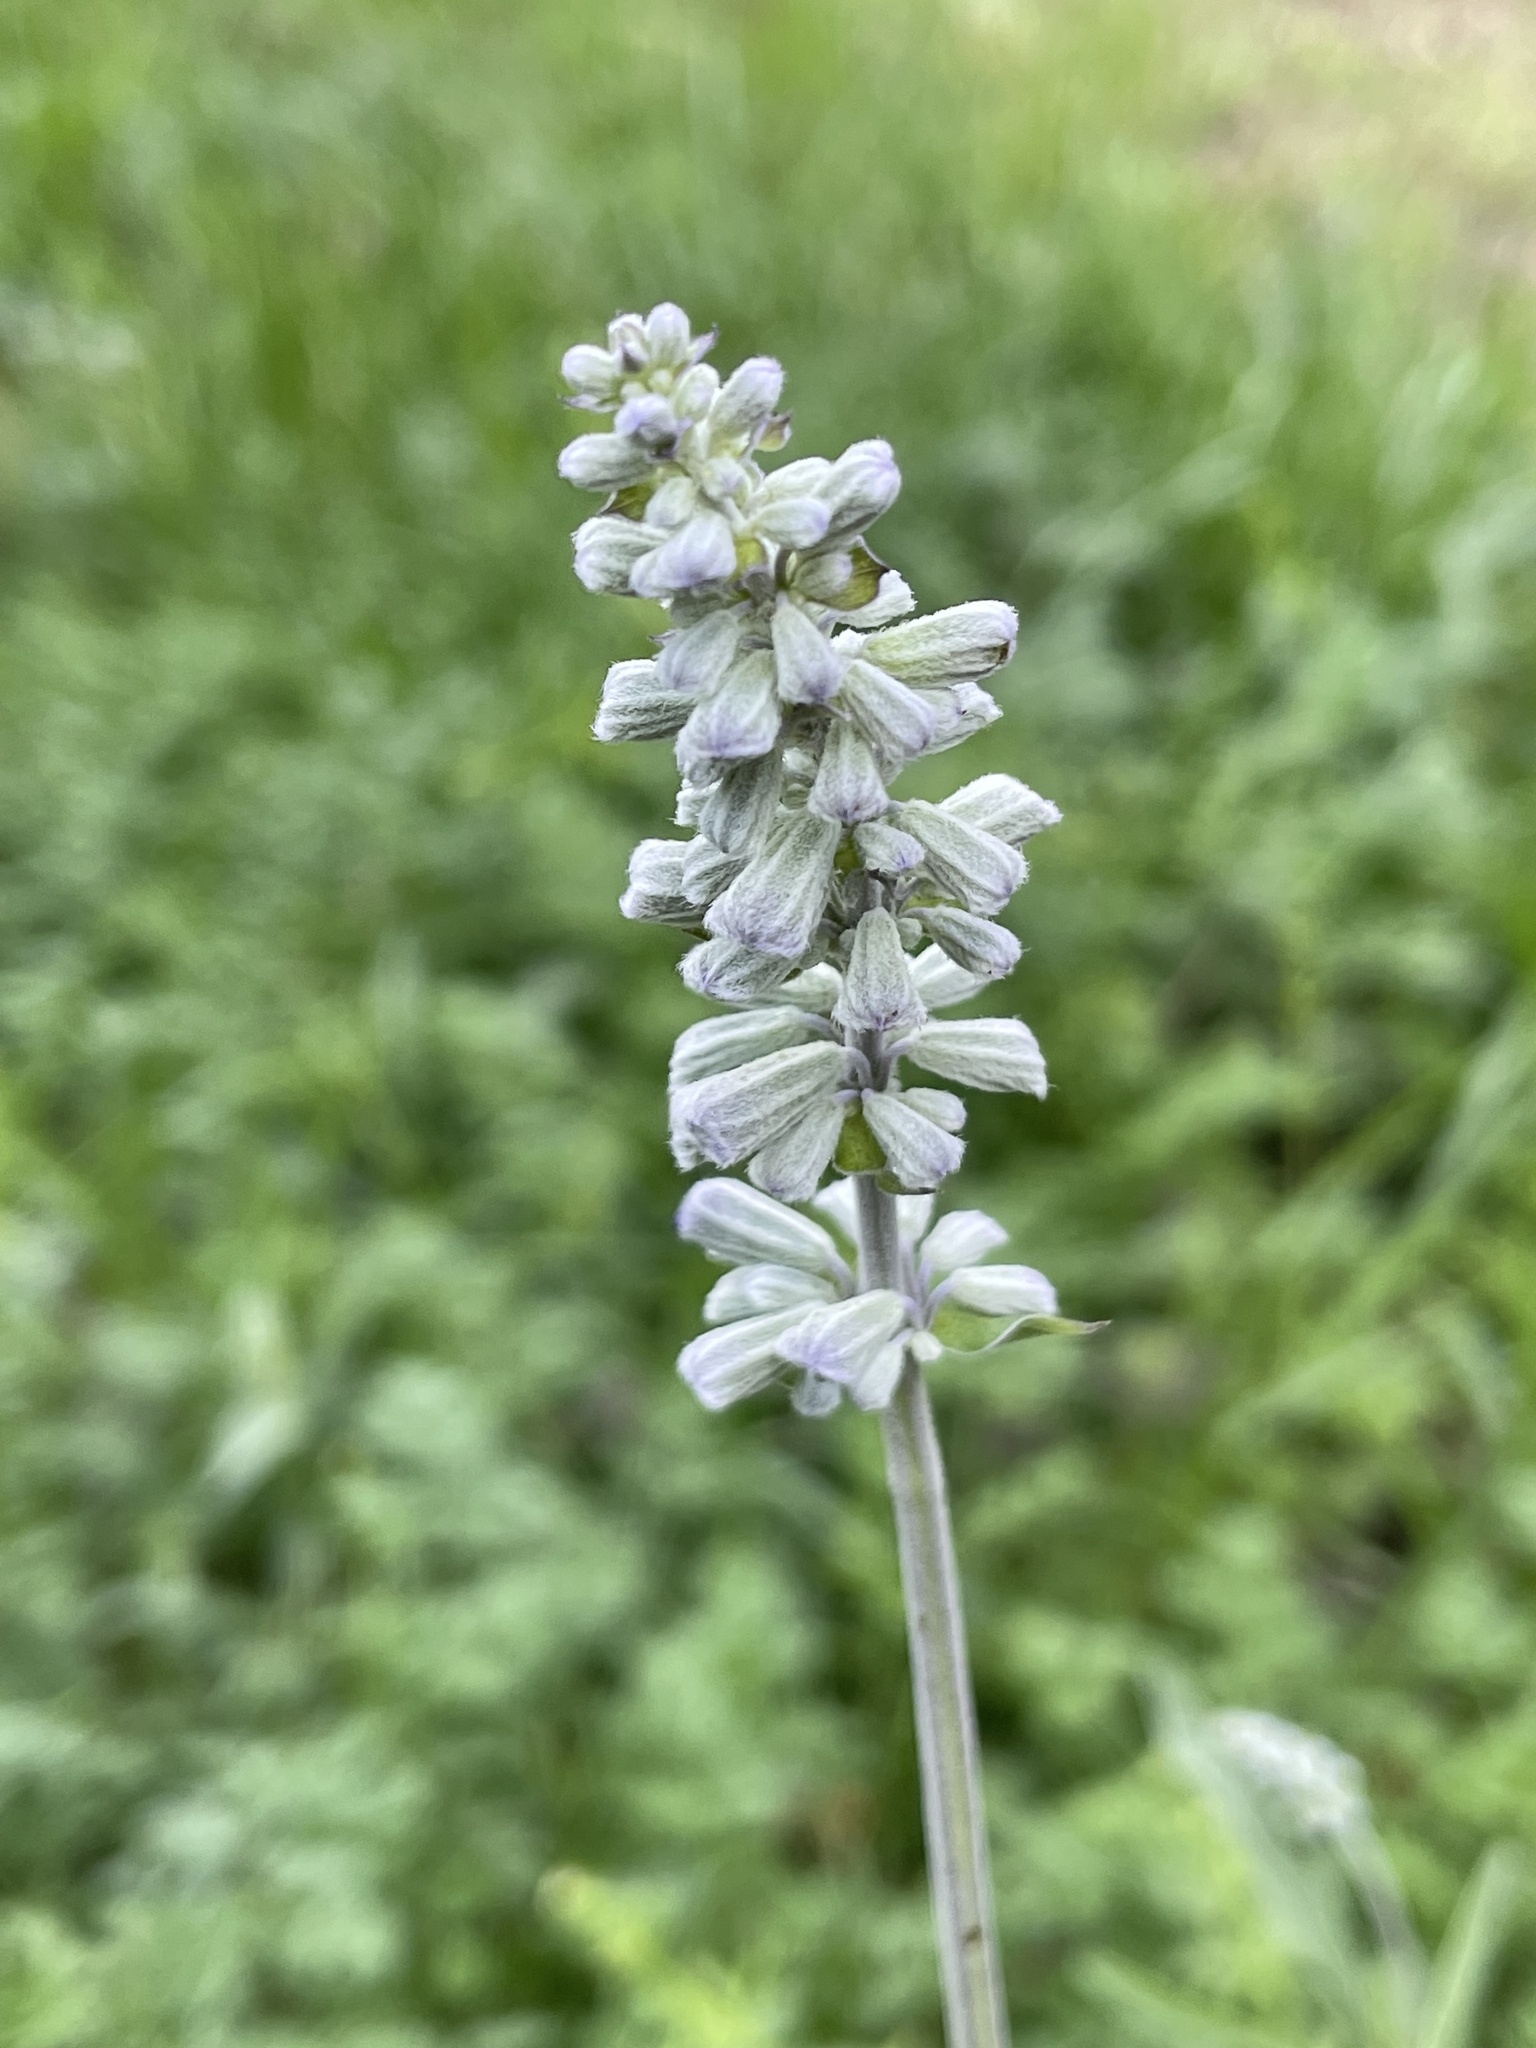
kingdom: Plantae
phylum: Tracheophyta
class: Magnoliopsida
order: Lamiales
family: Lamiaceae
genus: Salvia
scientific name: Salvia farinacea
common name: Mealy sage
